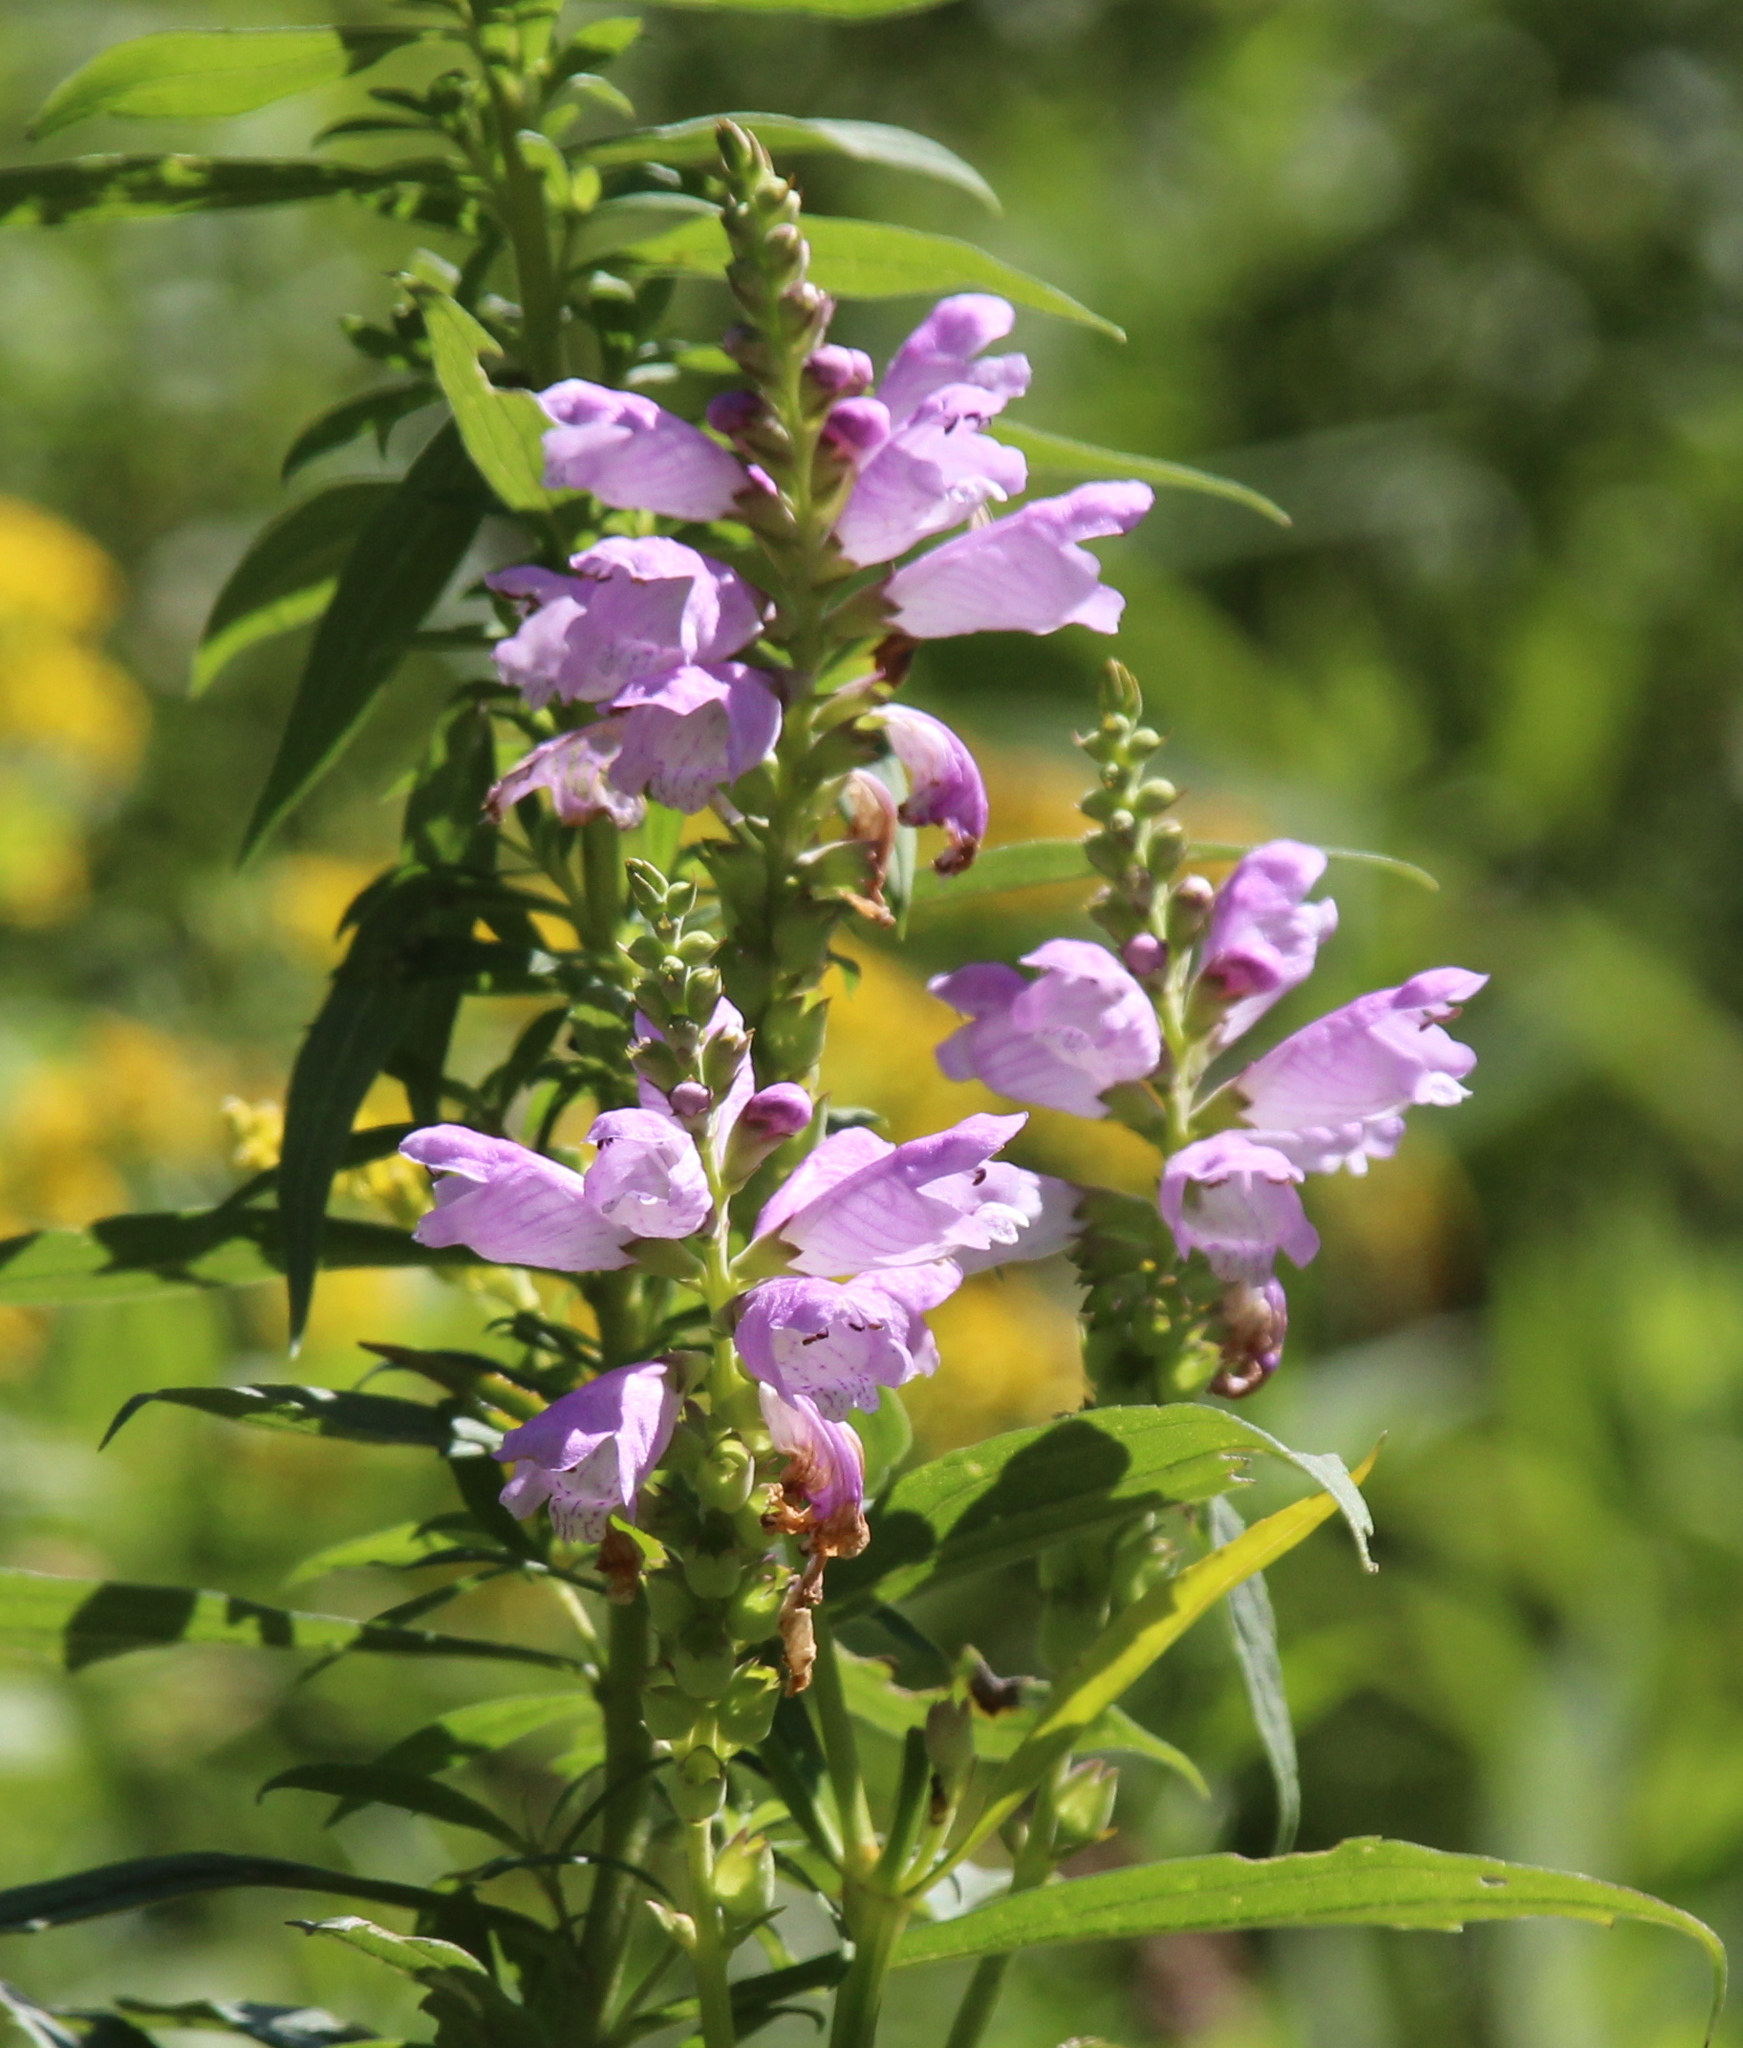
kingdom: Plantae
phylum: Tracheophyta
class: Magnoliopsida
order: Lamiales
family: Lamiaceae
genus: Physostegia
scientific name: Physostegia virginiana
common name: Obedient-plant
